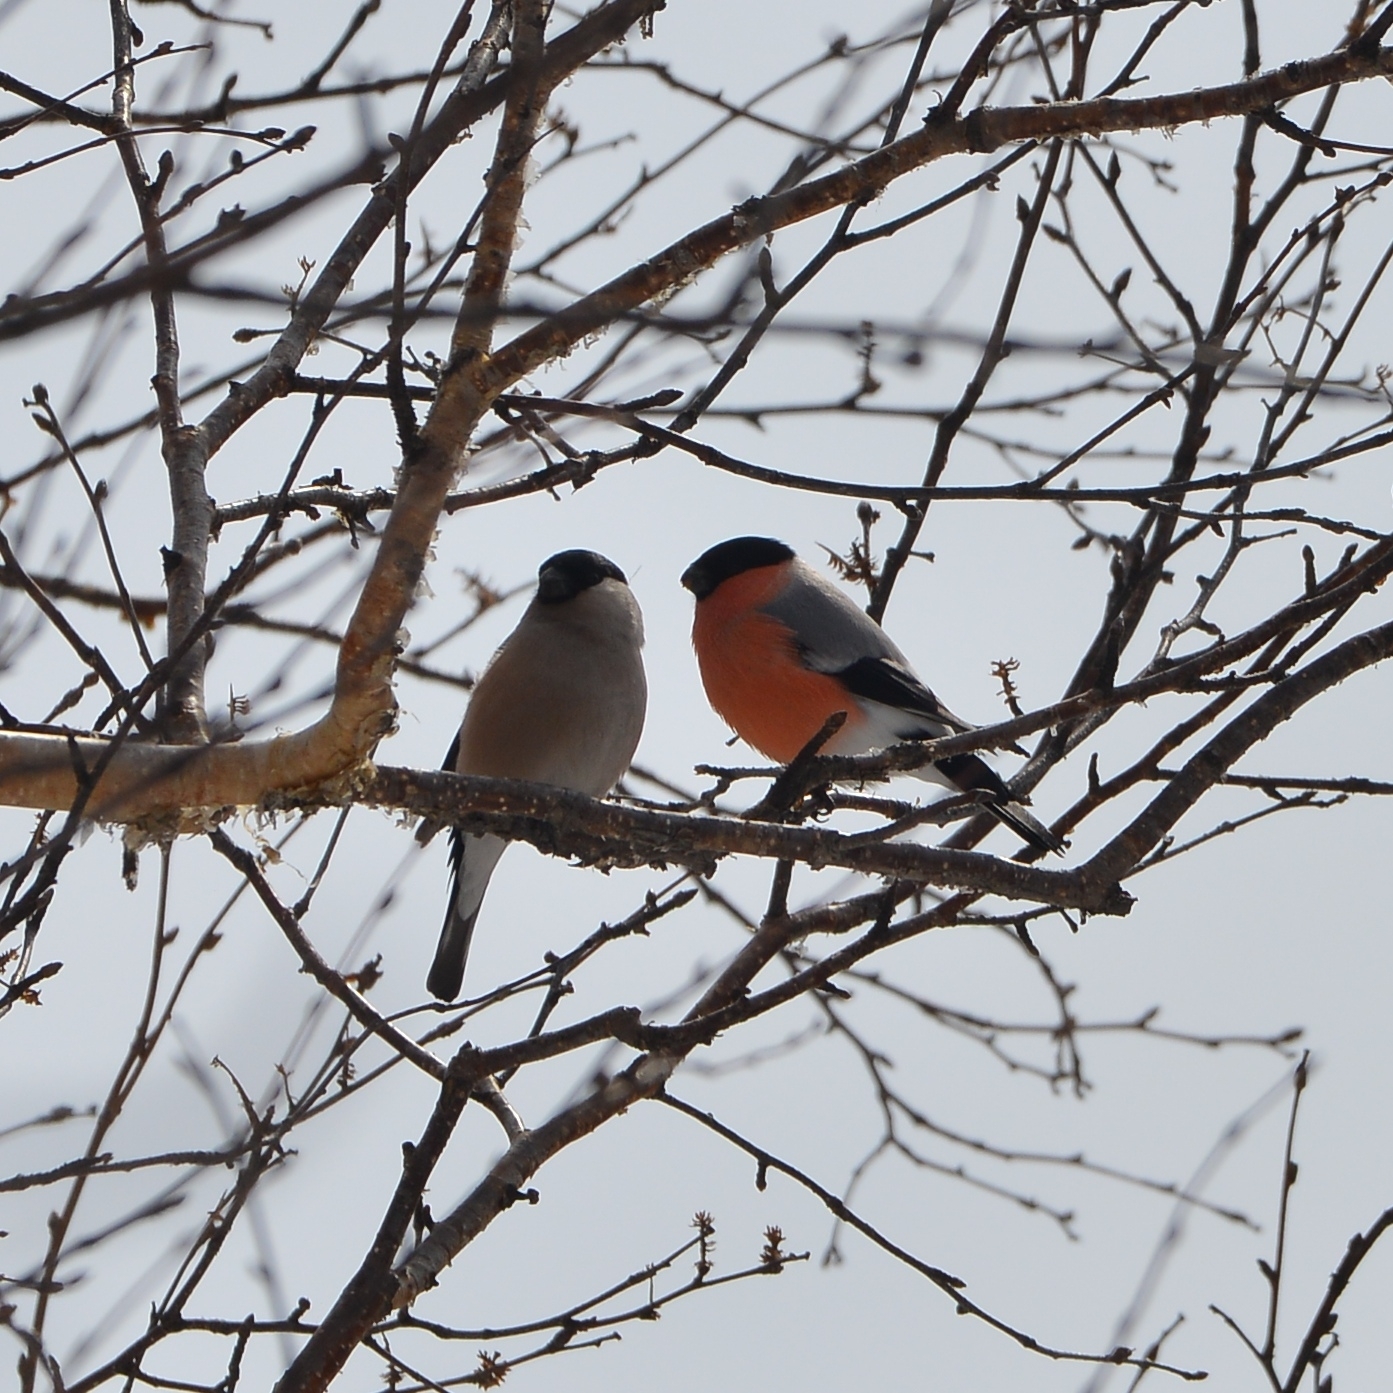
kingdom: Animalia
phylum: Chordata
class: Aves
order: Passeriformes
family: Fringillidae
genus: Pyrrhula
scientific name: Pyrrhula pyrrhula
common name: Eurasian bullfinch
